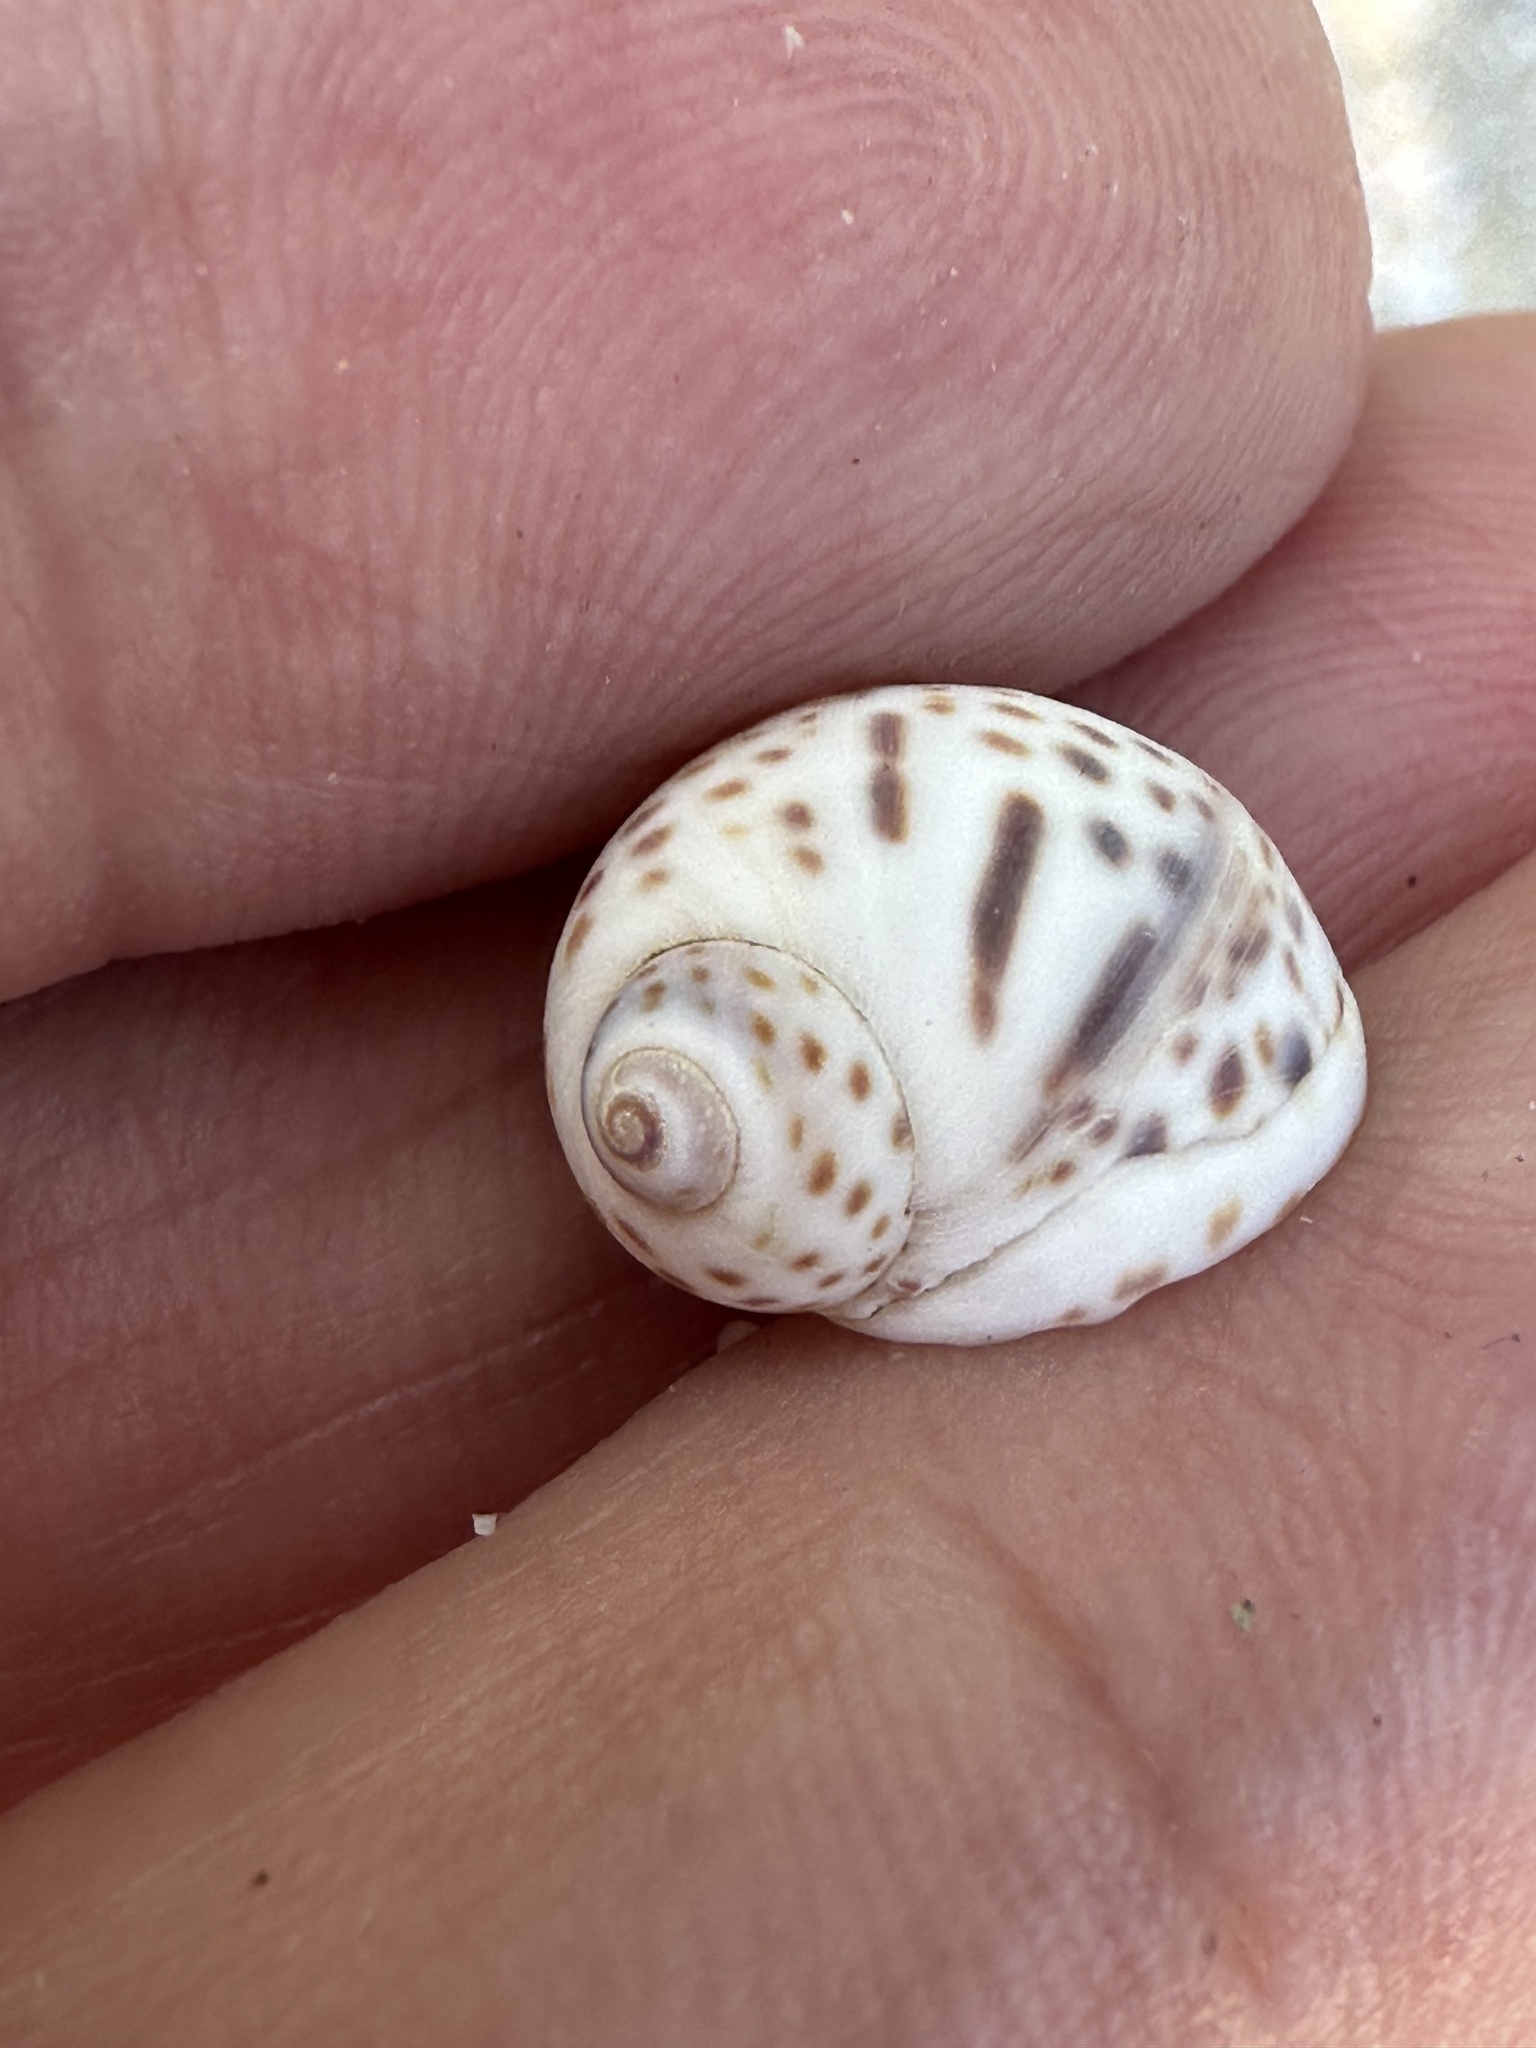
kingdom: Animalia
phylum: Mollusca
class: Gastropoda
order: Littorinimorpha
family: Naticidae
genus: Paratectonatica
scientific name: Paratectonatica tigrina
